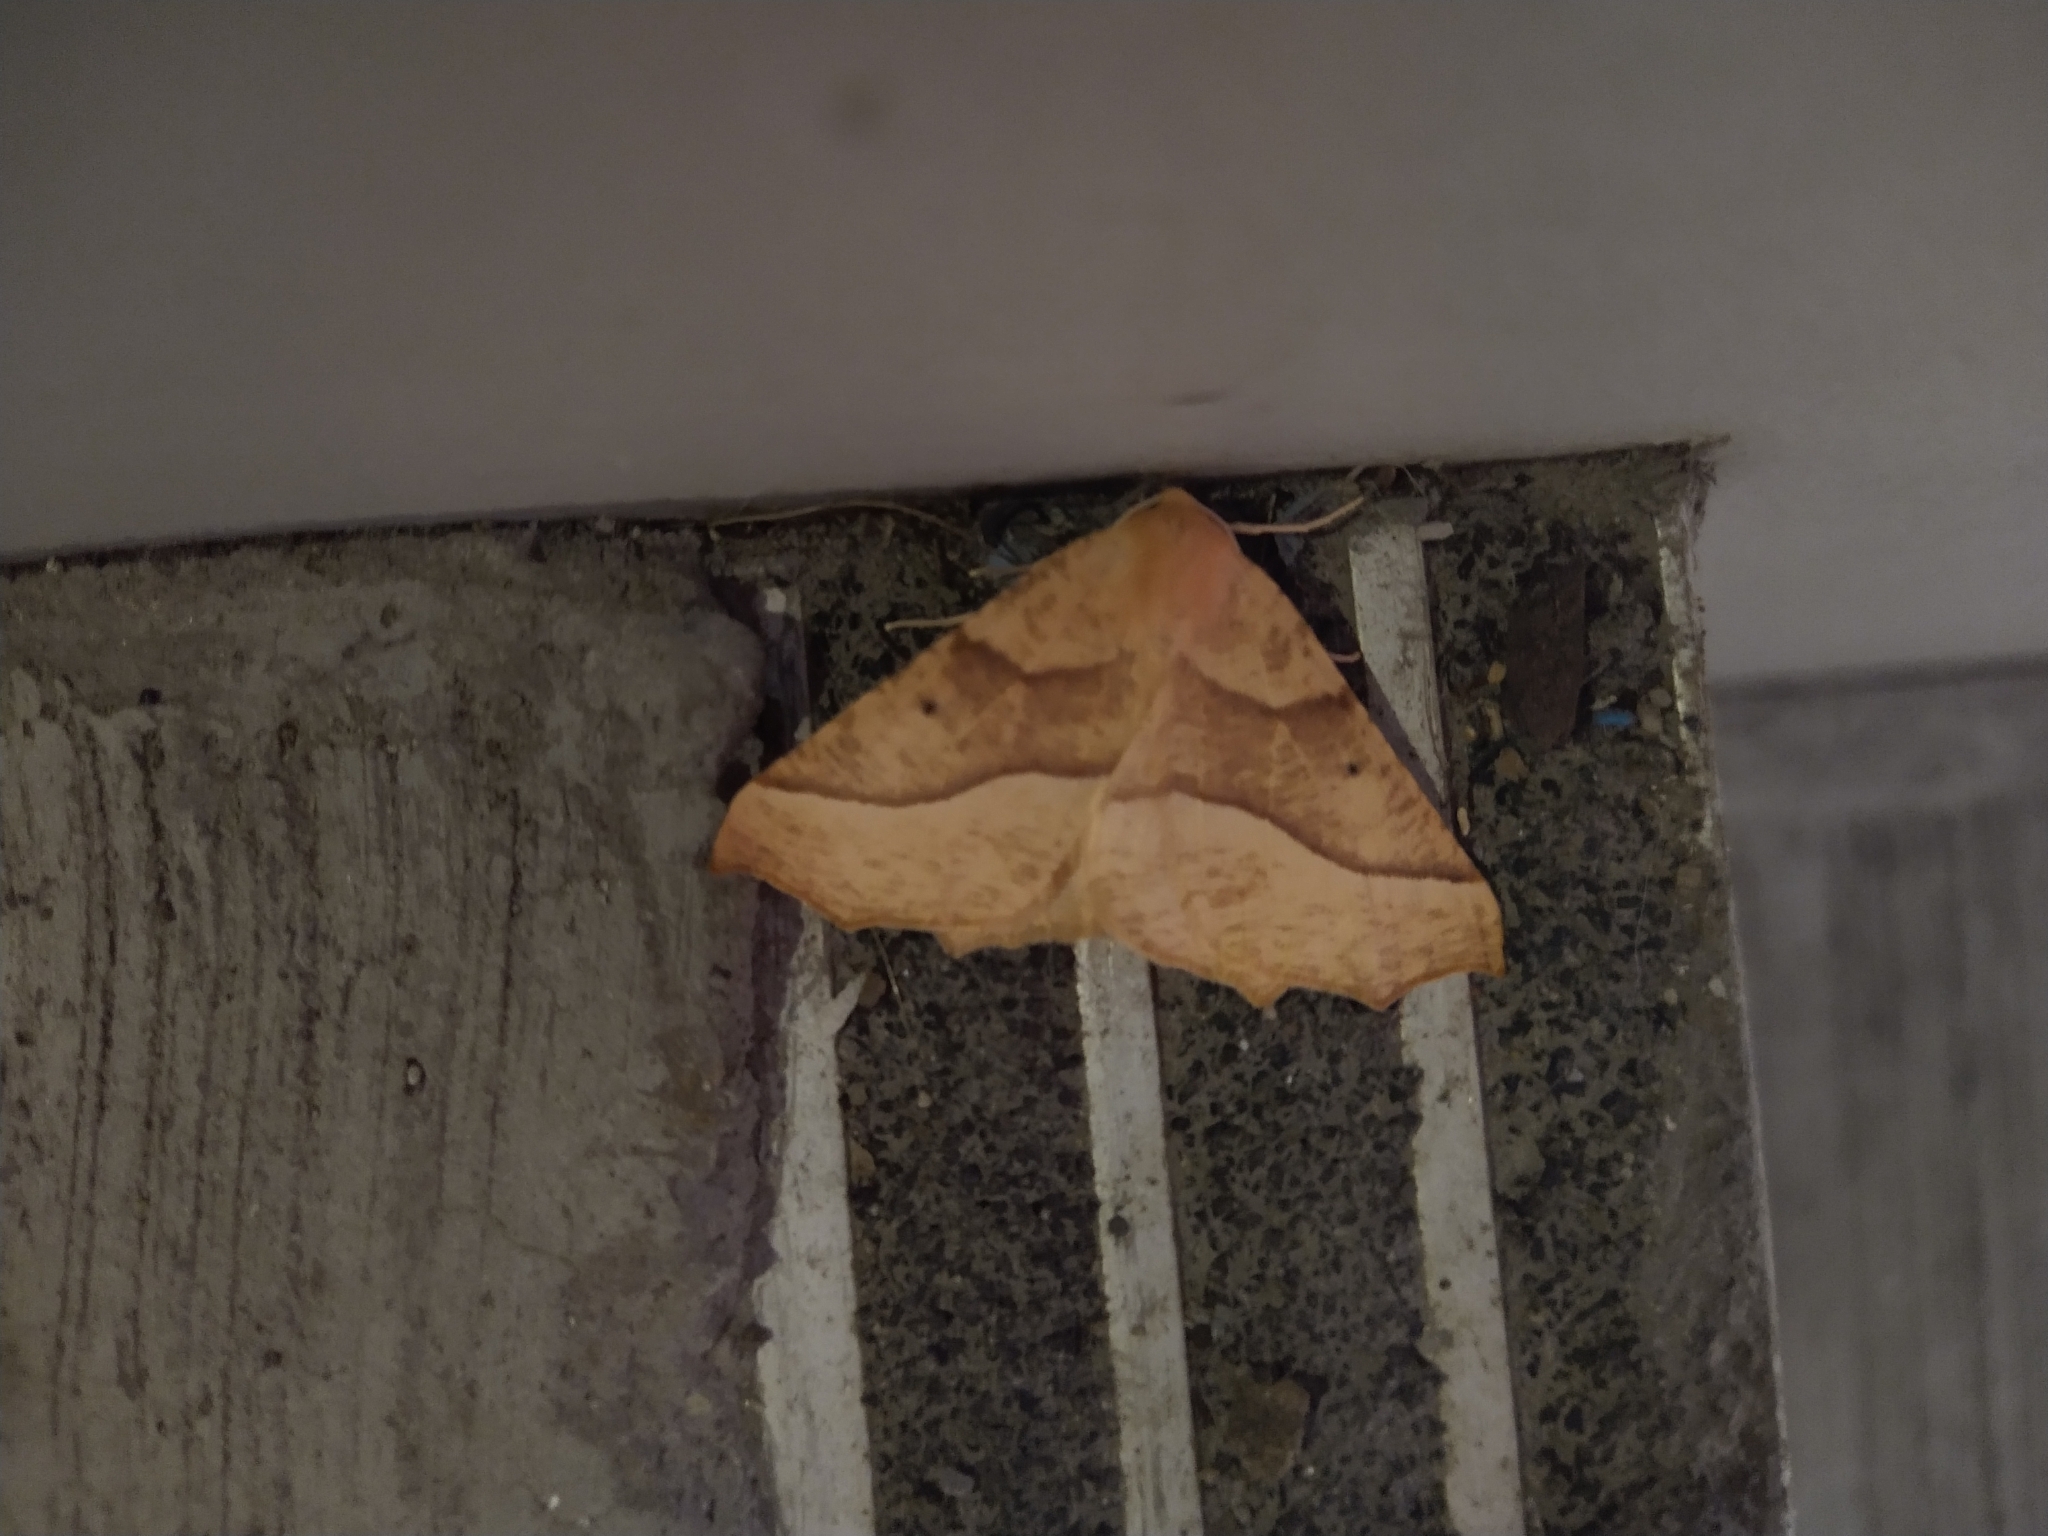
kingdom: Animalia
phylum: Arthropoda
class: Insecta
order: Lepidoptera
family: Geometridae
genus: Synaxis
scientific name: Synaxis jubararia
